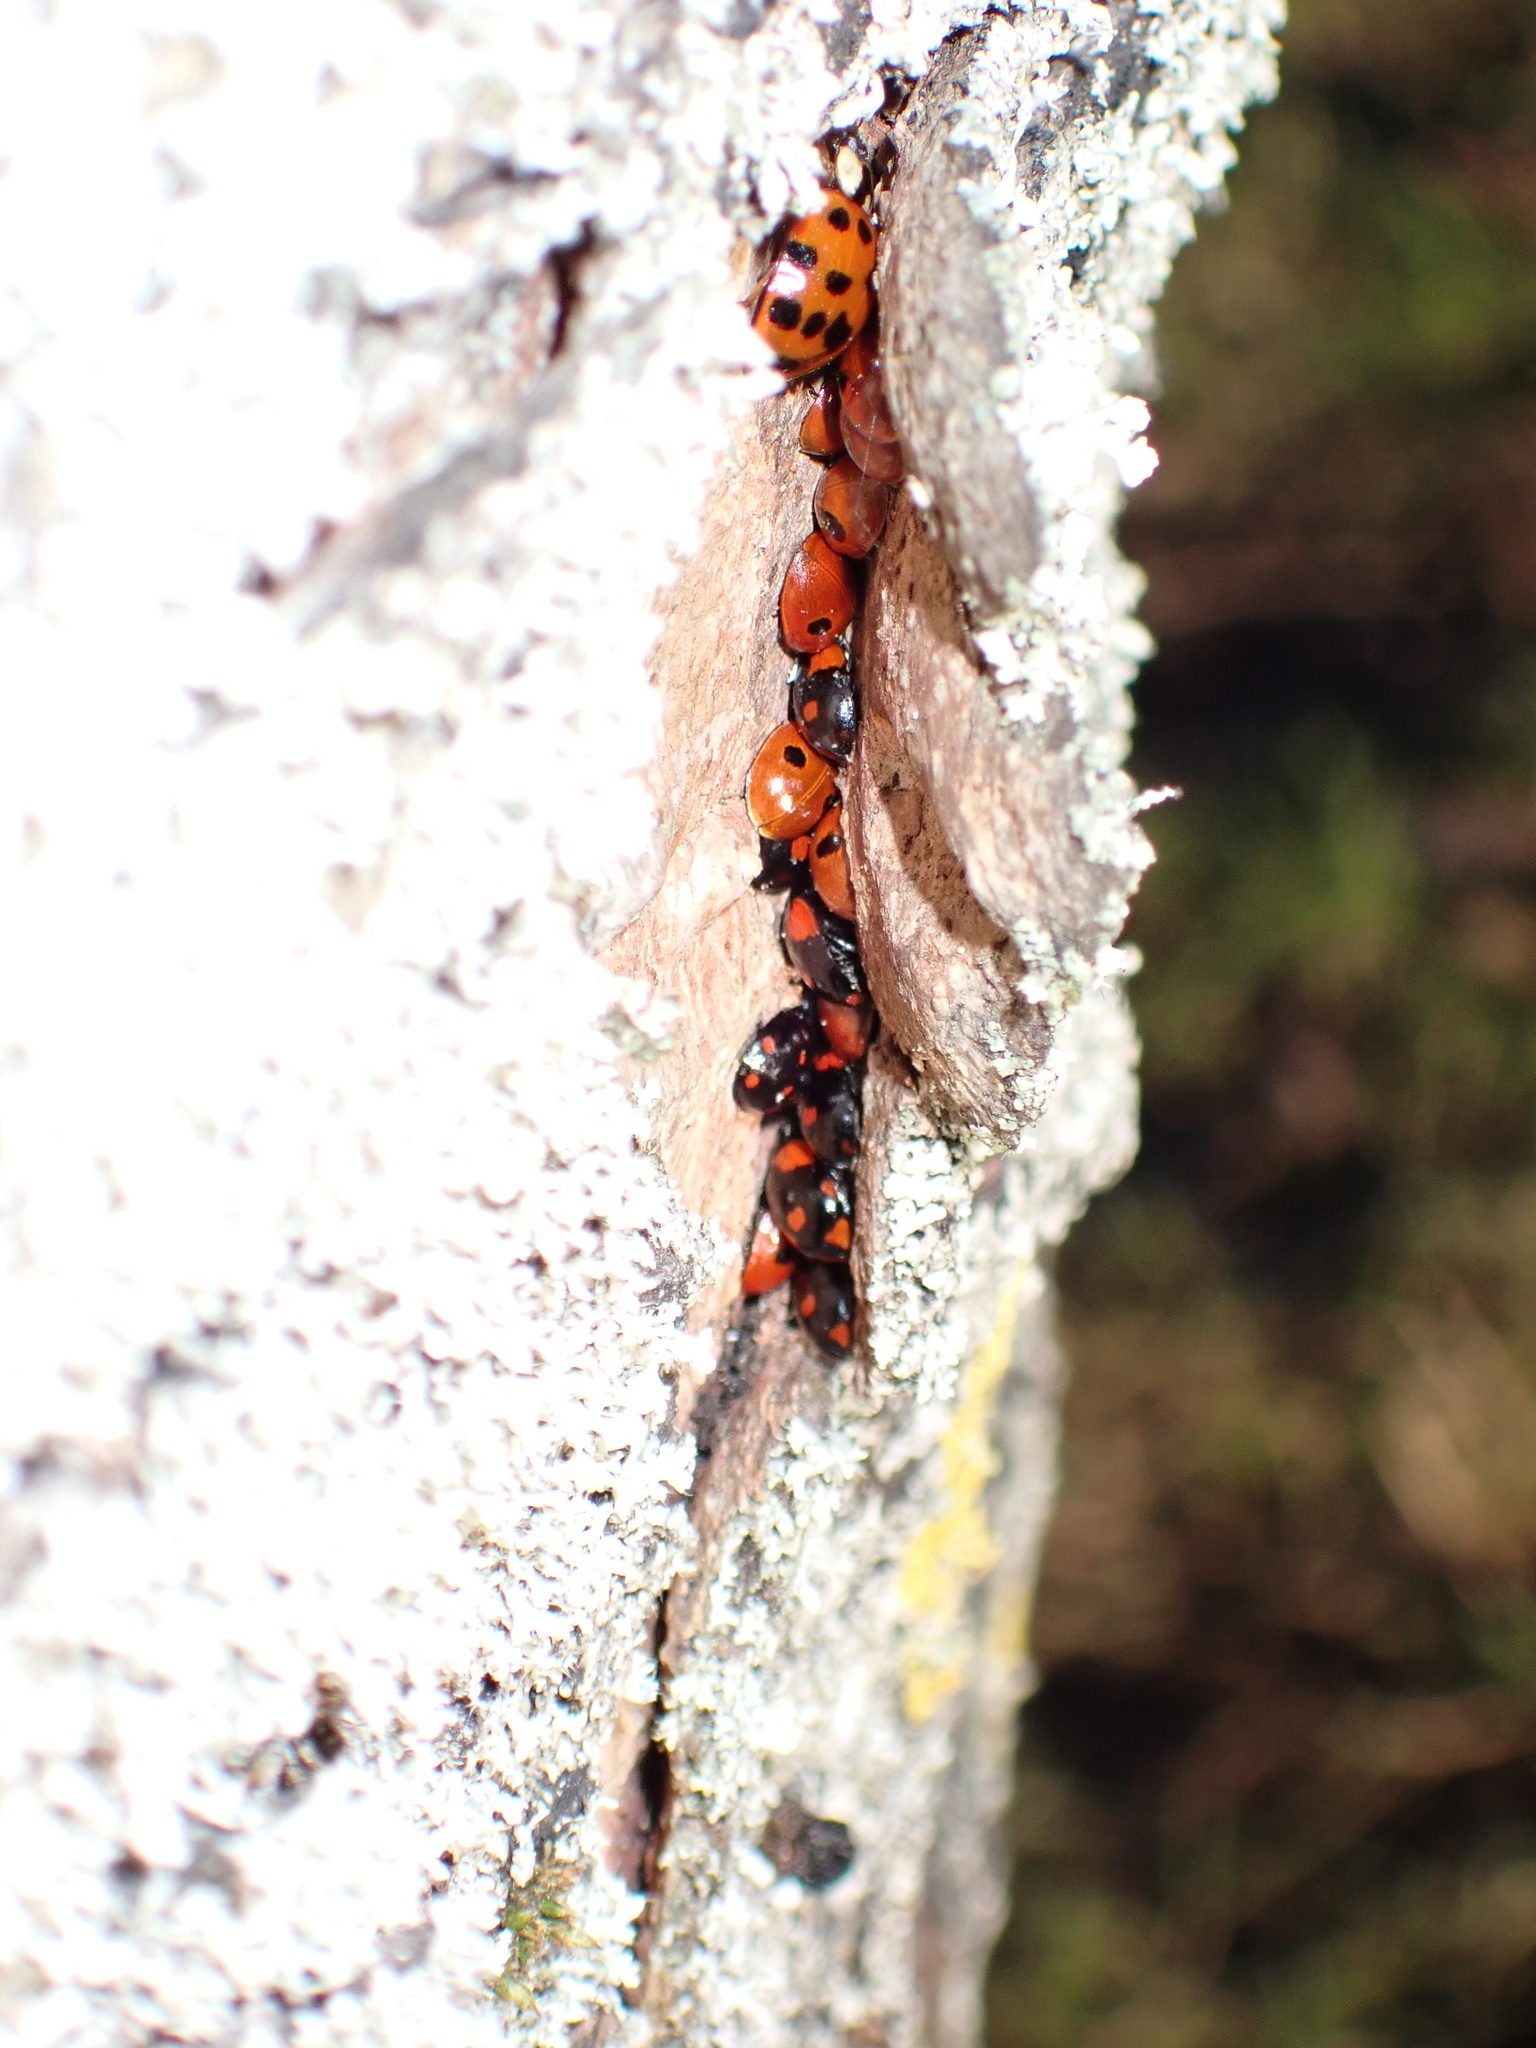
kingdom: Animalia
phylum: Arthropoda
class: Insecta
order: Coleoptera
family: Coccinellidae
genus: Adalia
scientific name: Adalia bipunctata
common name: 2-spot ladybird
